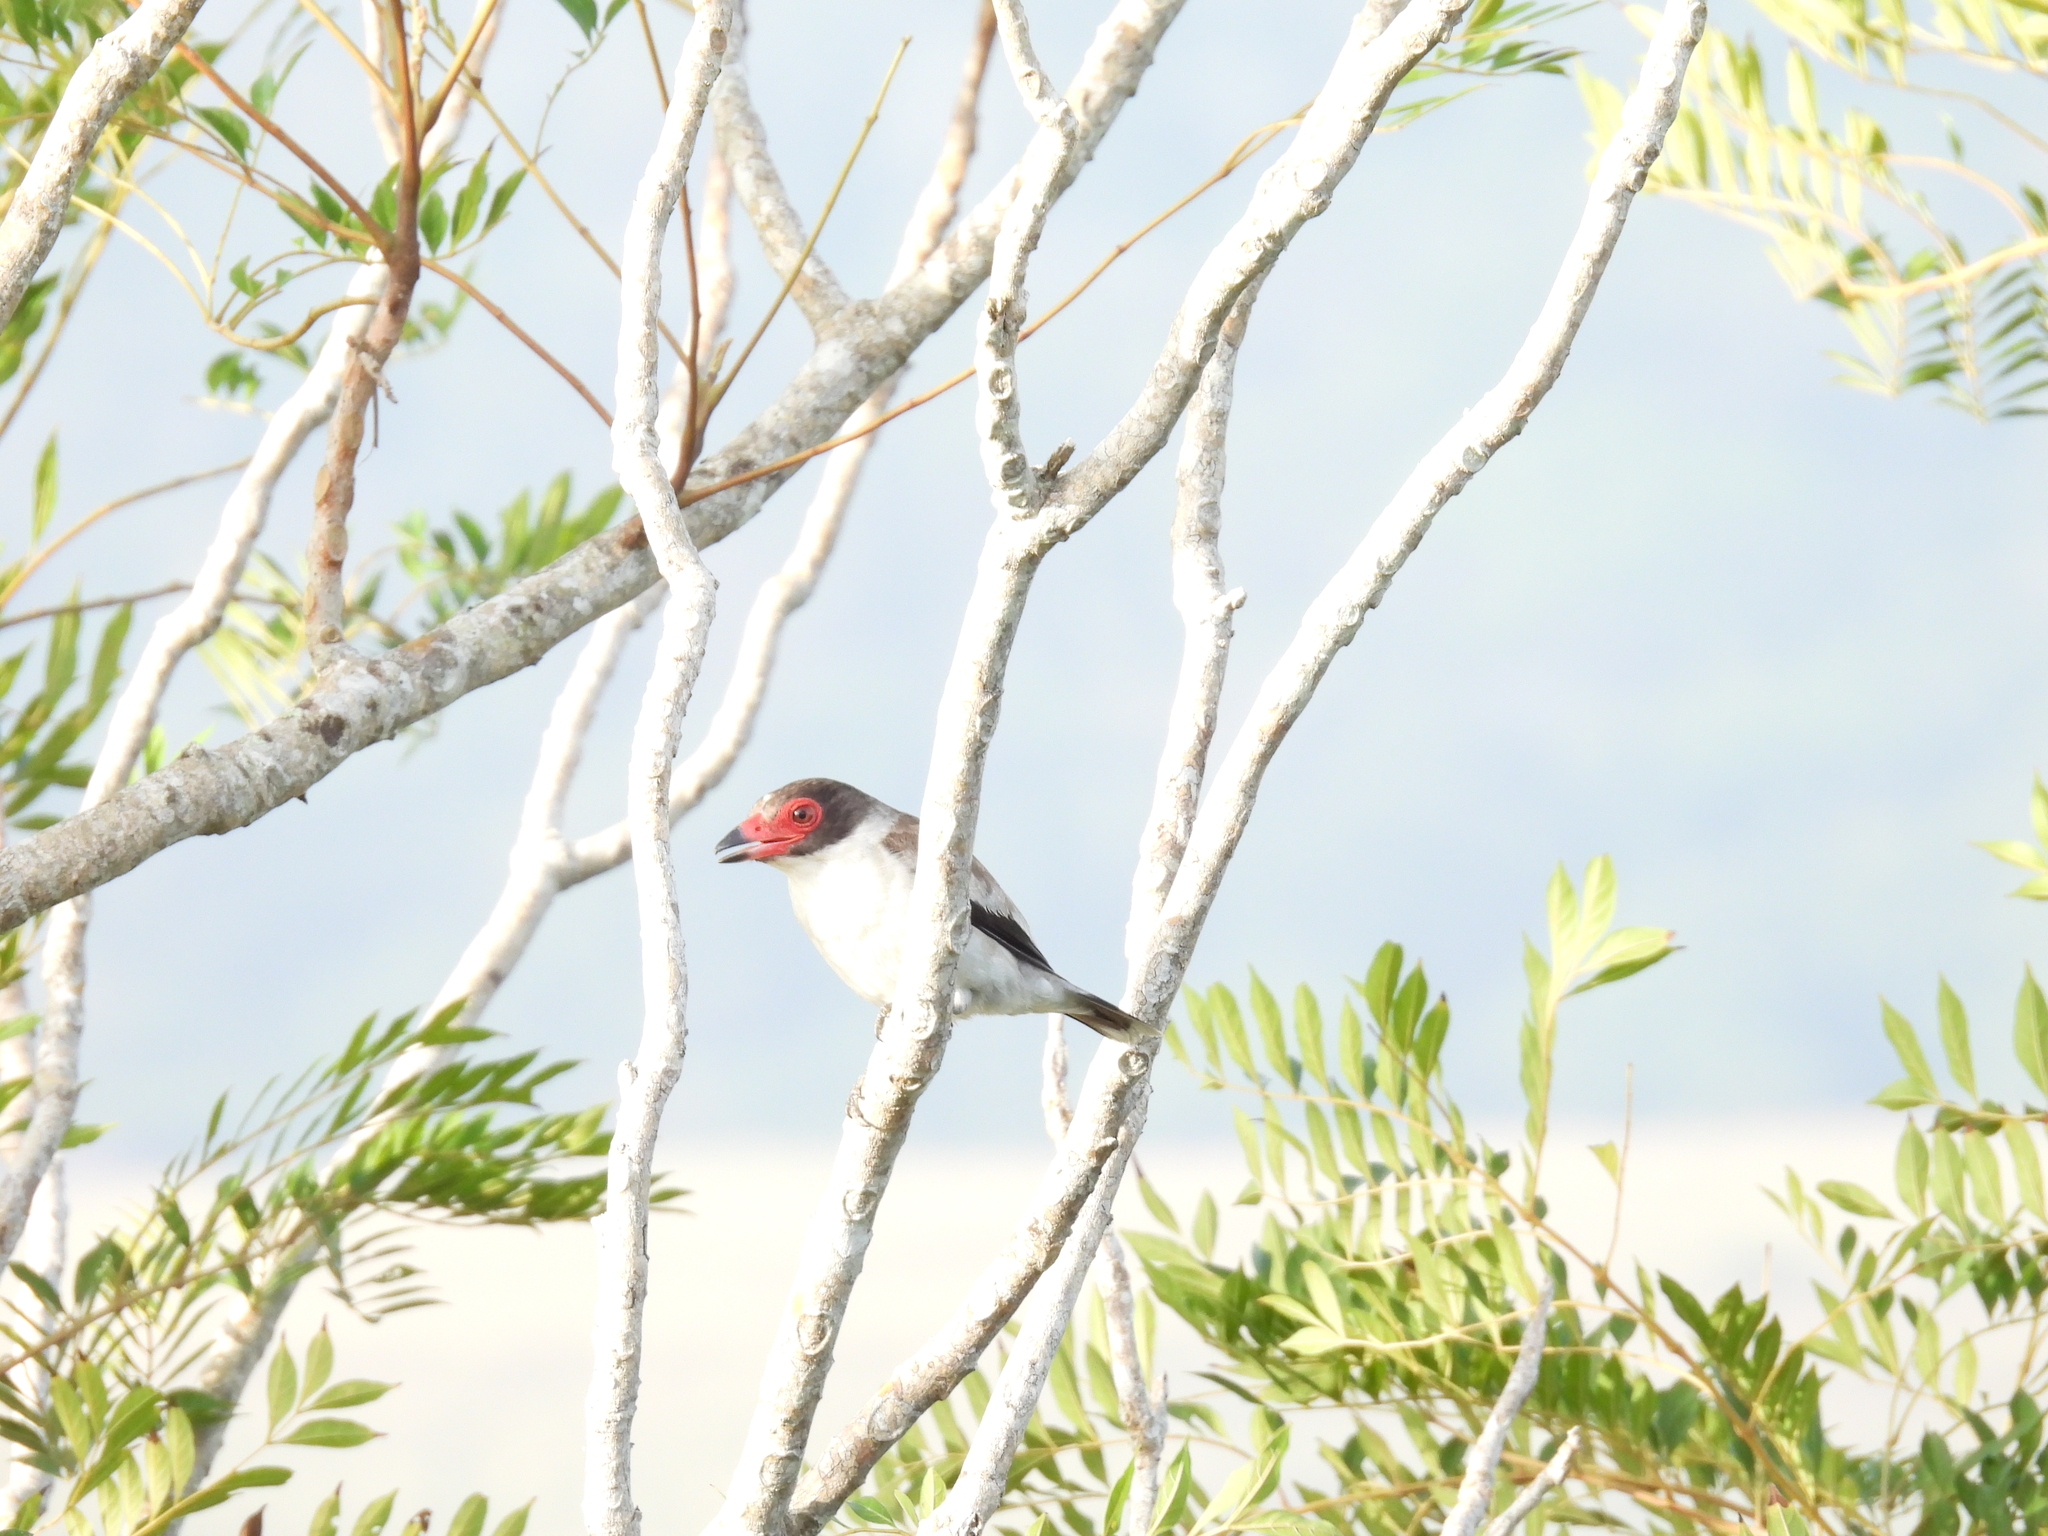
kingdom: Animalia
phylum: Chordata
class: Aves
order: Passeriformes
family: Cotingidae
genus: Tityra
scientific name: Tityra semifasciata
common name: Masked tityra
